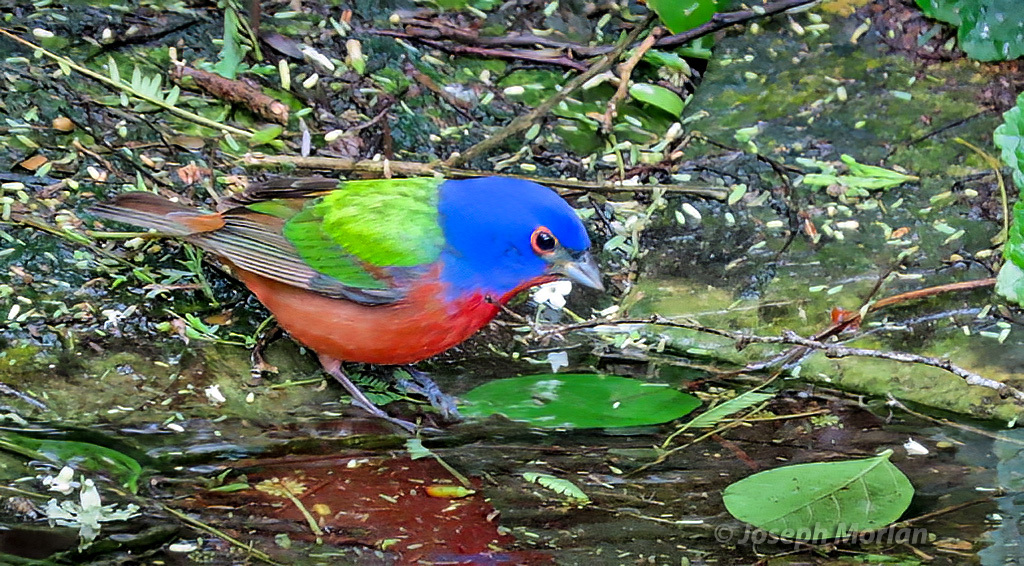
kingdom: Animalia
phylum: Chordata
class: Aves
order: Passeriformes
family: Cardinalidae
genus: Passerina
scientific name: Passerina ciris
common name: Painted bunting
